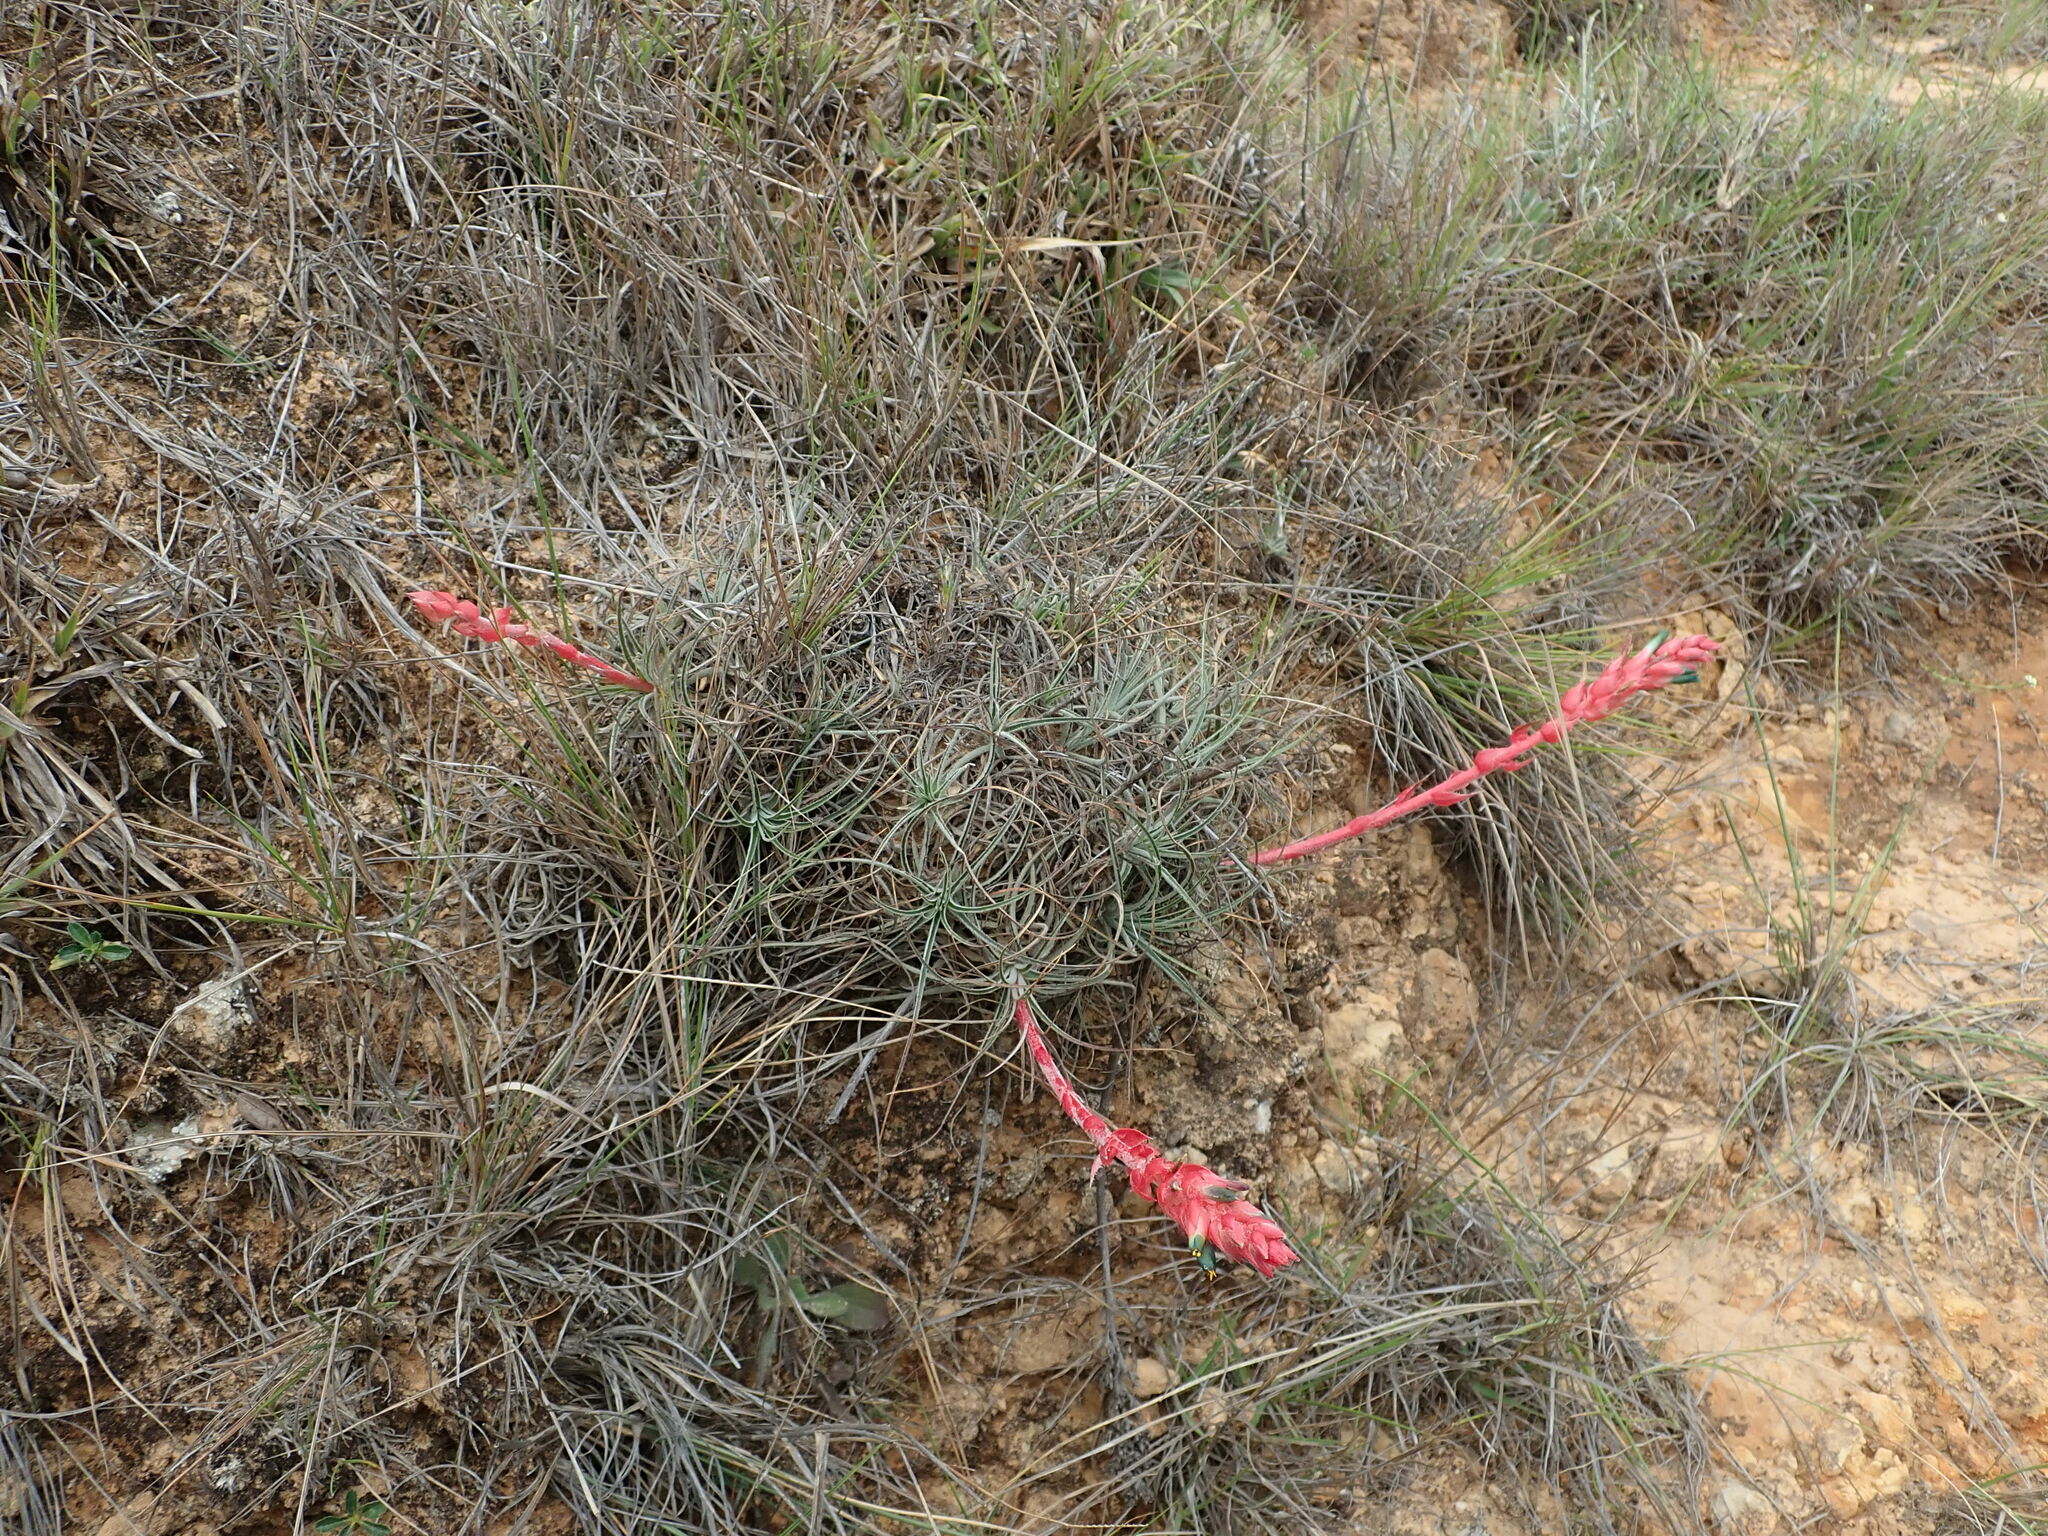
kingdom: Plantae
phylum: Tracheophyta
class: Liliopsida
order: Poales
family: Bromeliaceae
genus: Puya
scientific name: Puya tuberosa
